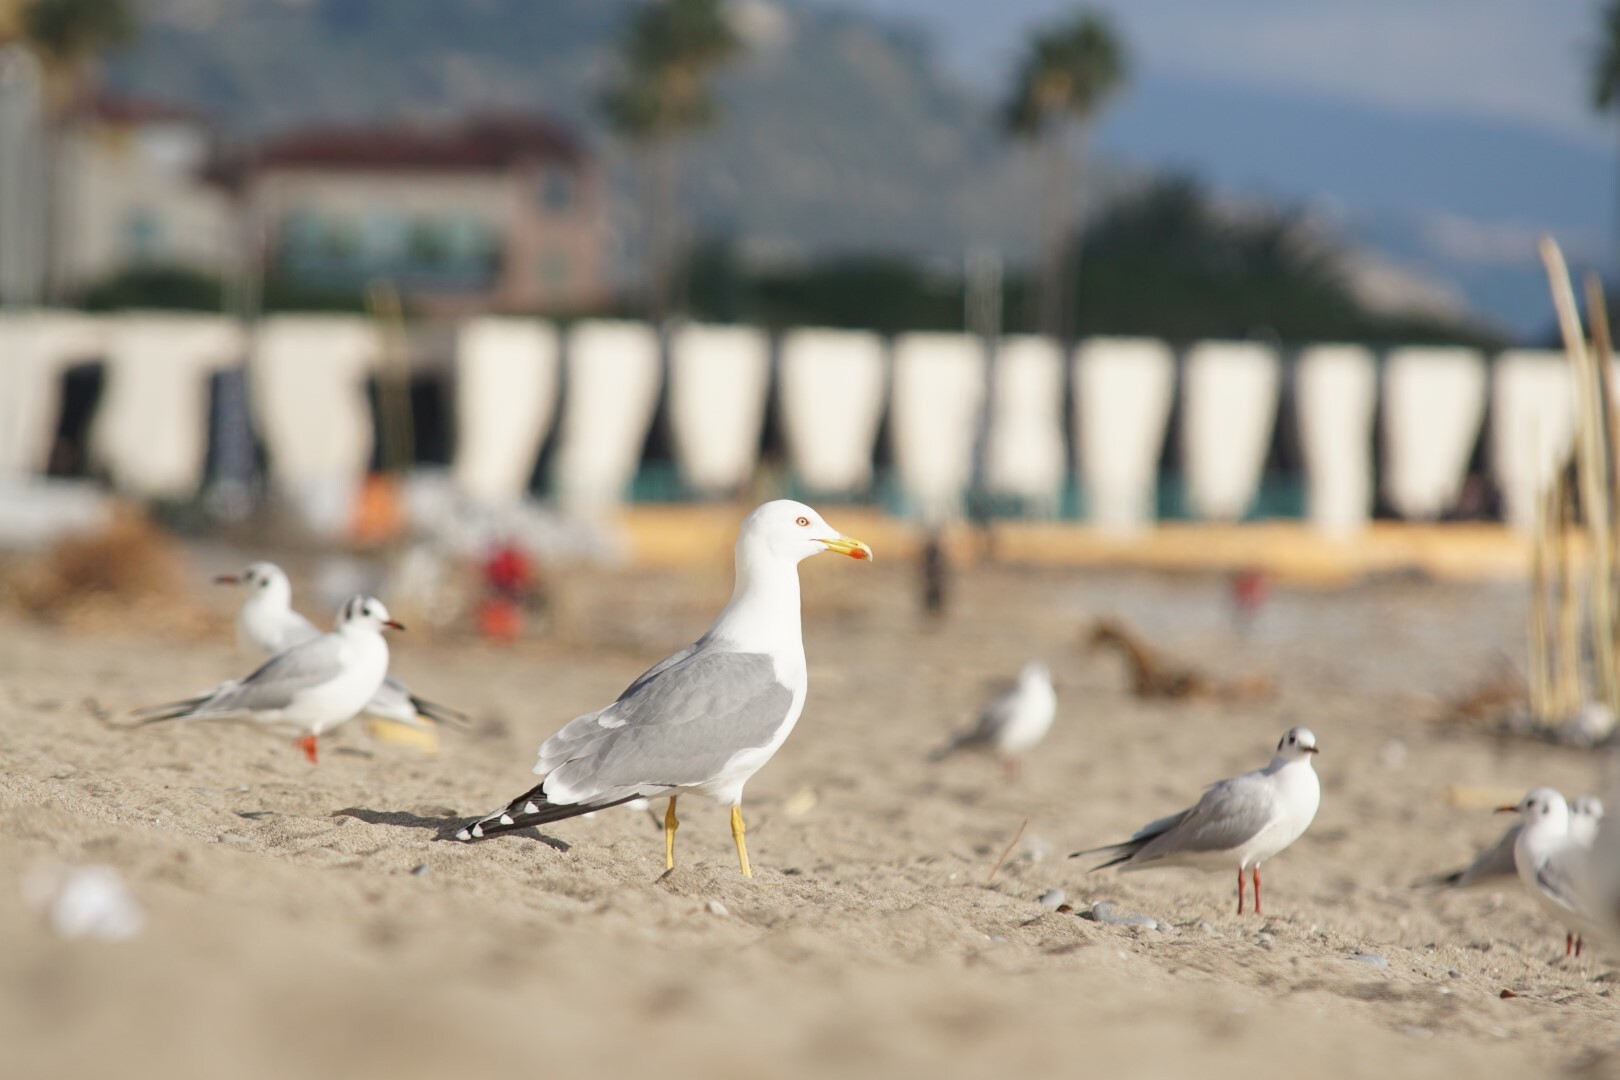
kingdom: Animalia
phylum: Chordata
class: Aves
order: Charadriiformes
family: Laridae
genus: Larus
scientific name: Larus michahellis
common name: Yellow-legged gull
